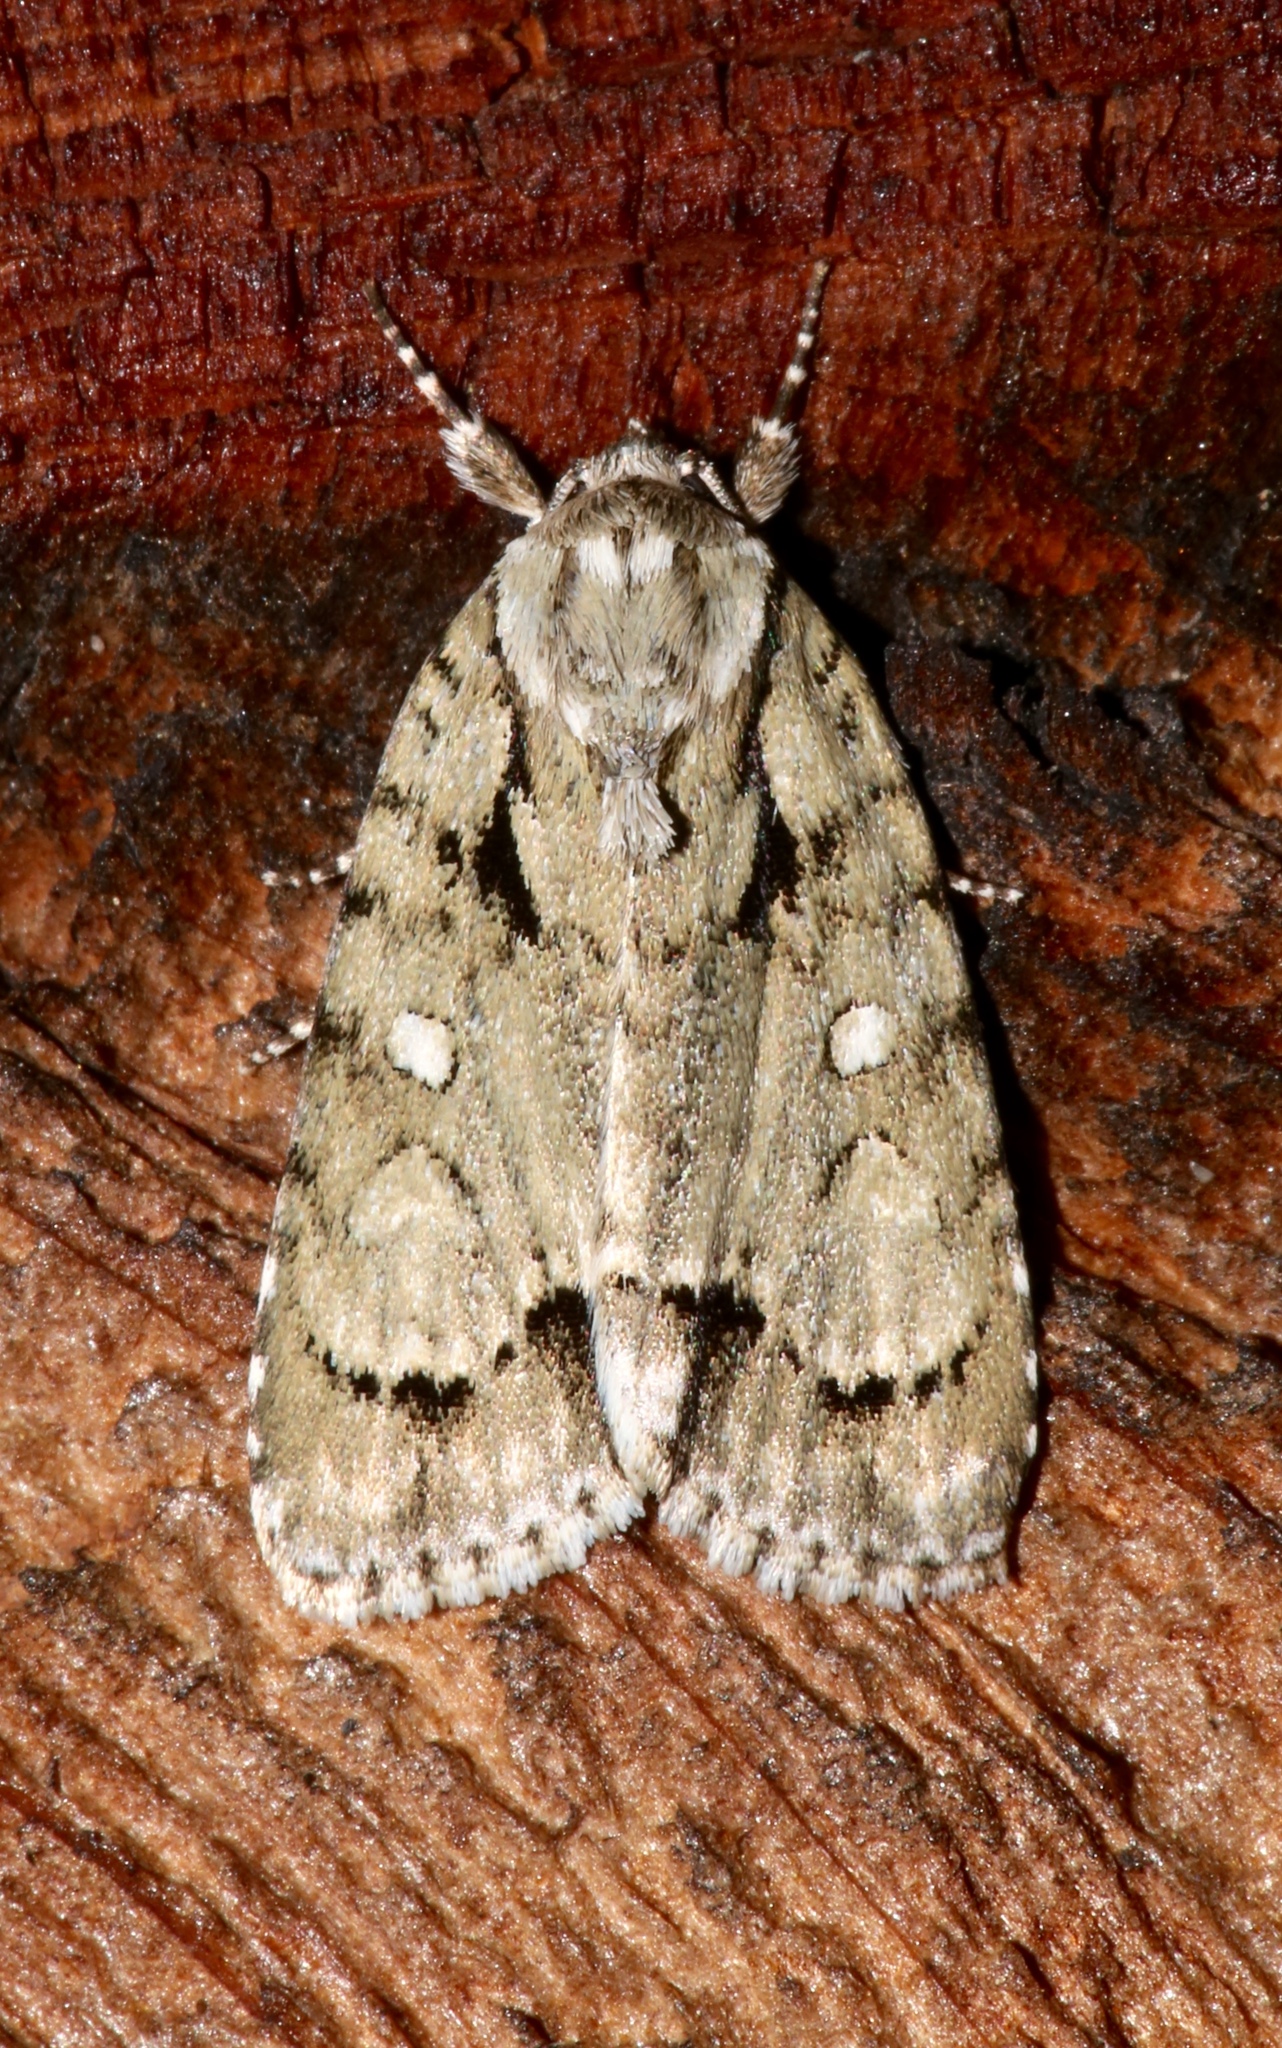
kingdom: Animalia
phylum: Arthropoda
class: Insecta
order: Lepidoptera
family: Noctuidae
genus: Acronicta
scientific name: Acronicta vinnula
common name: Delightful dagger
